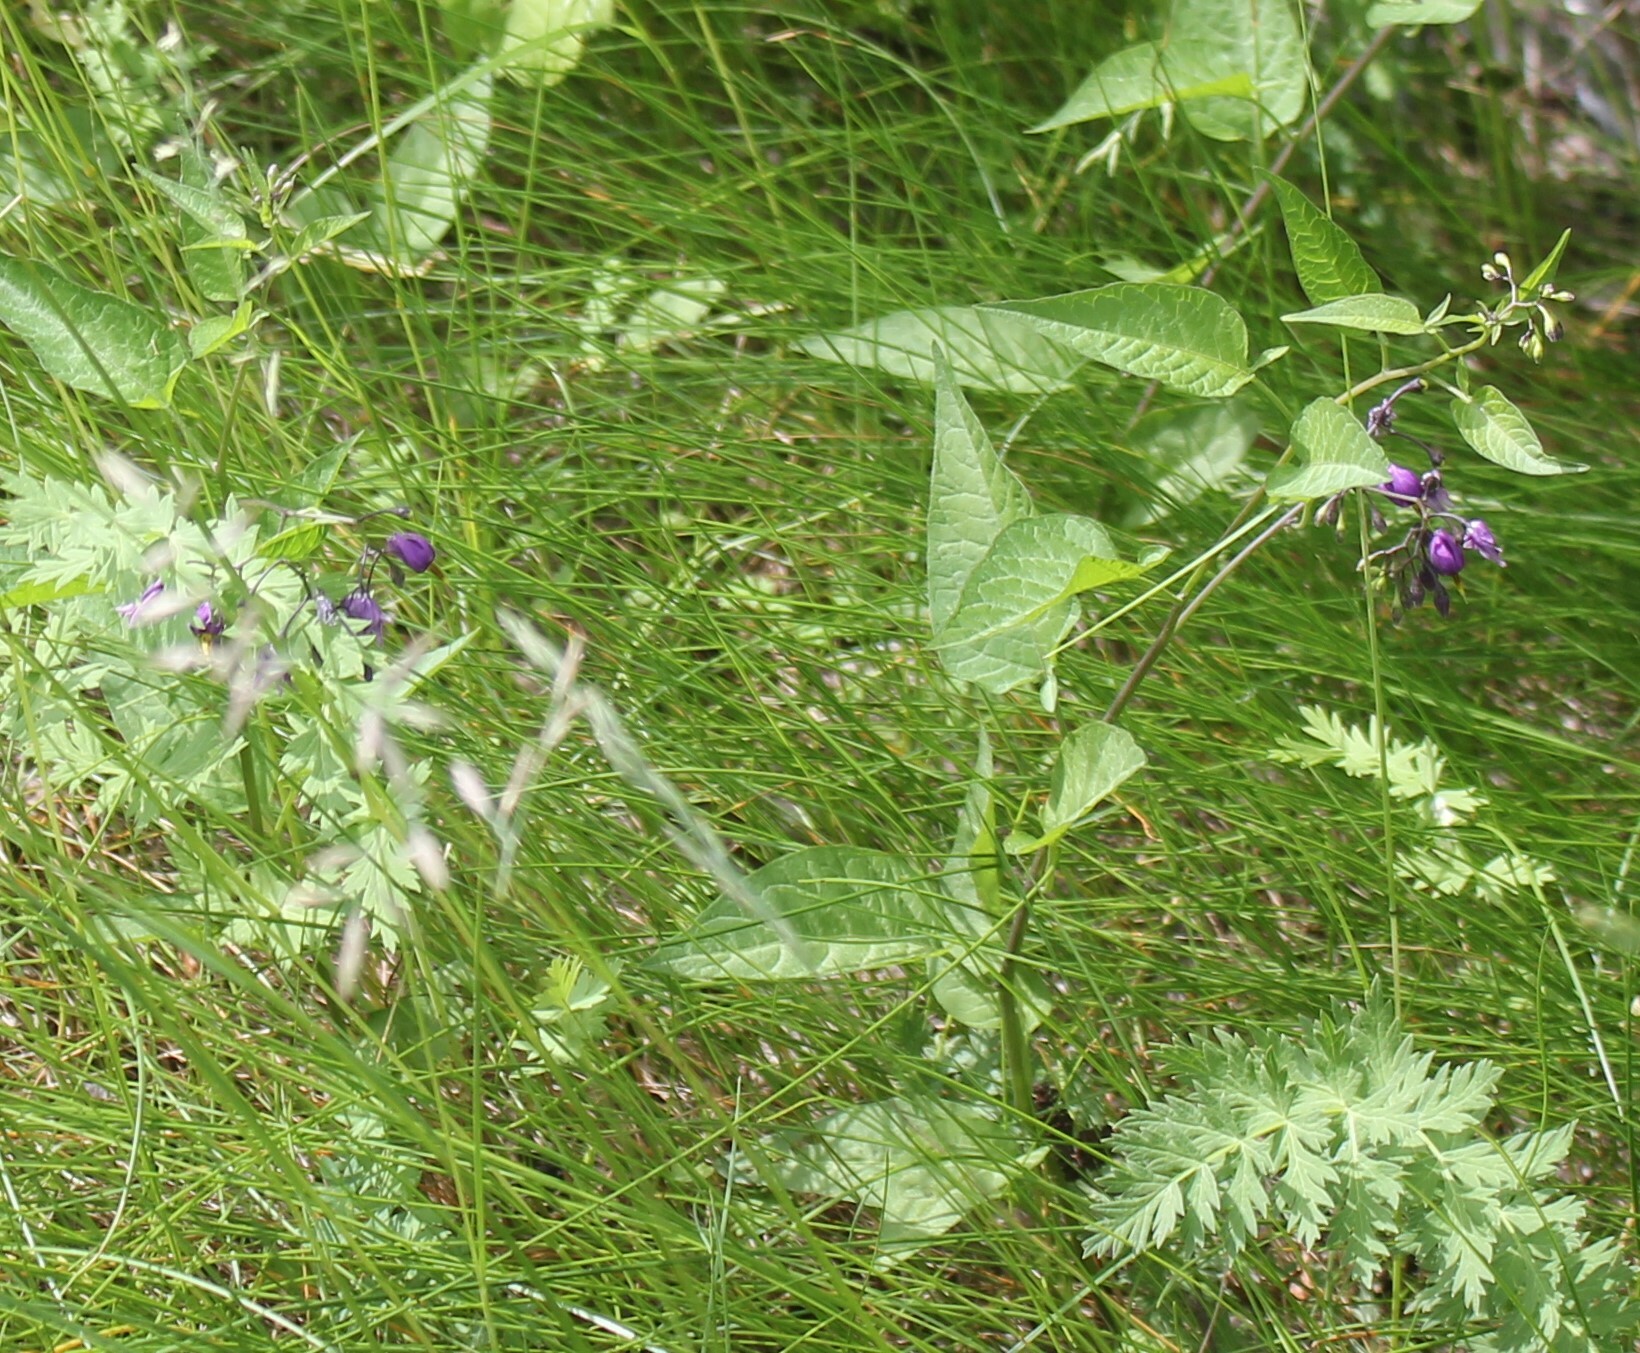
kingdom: Plantae
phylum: Tracheophyta
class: Magnoliopsida
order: Solanales
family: Solanaceae
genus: Solanum
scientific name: Solanum dulcamara
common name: Climbing nightshade
